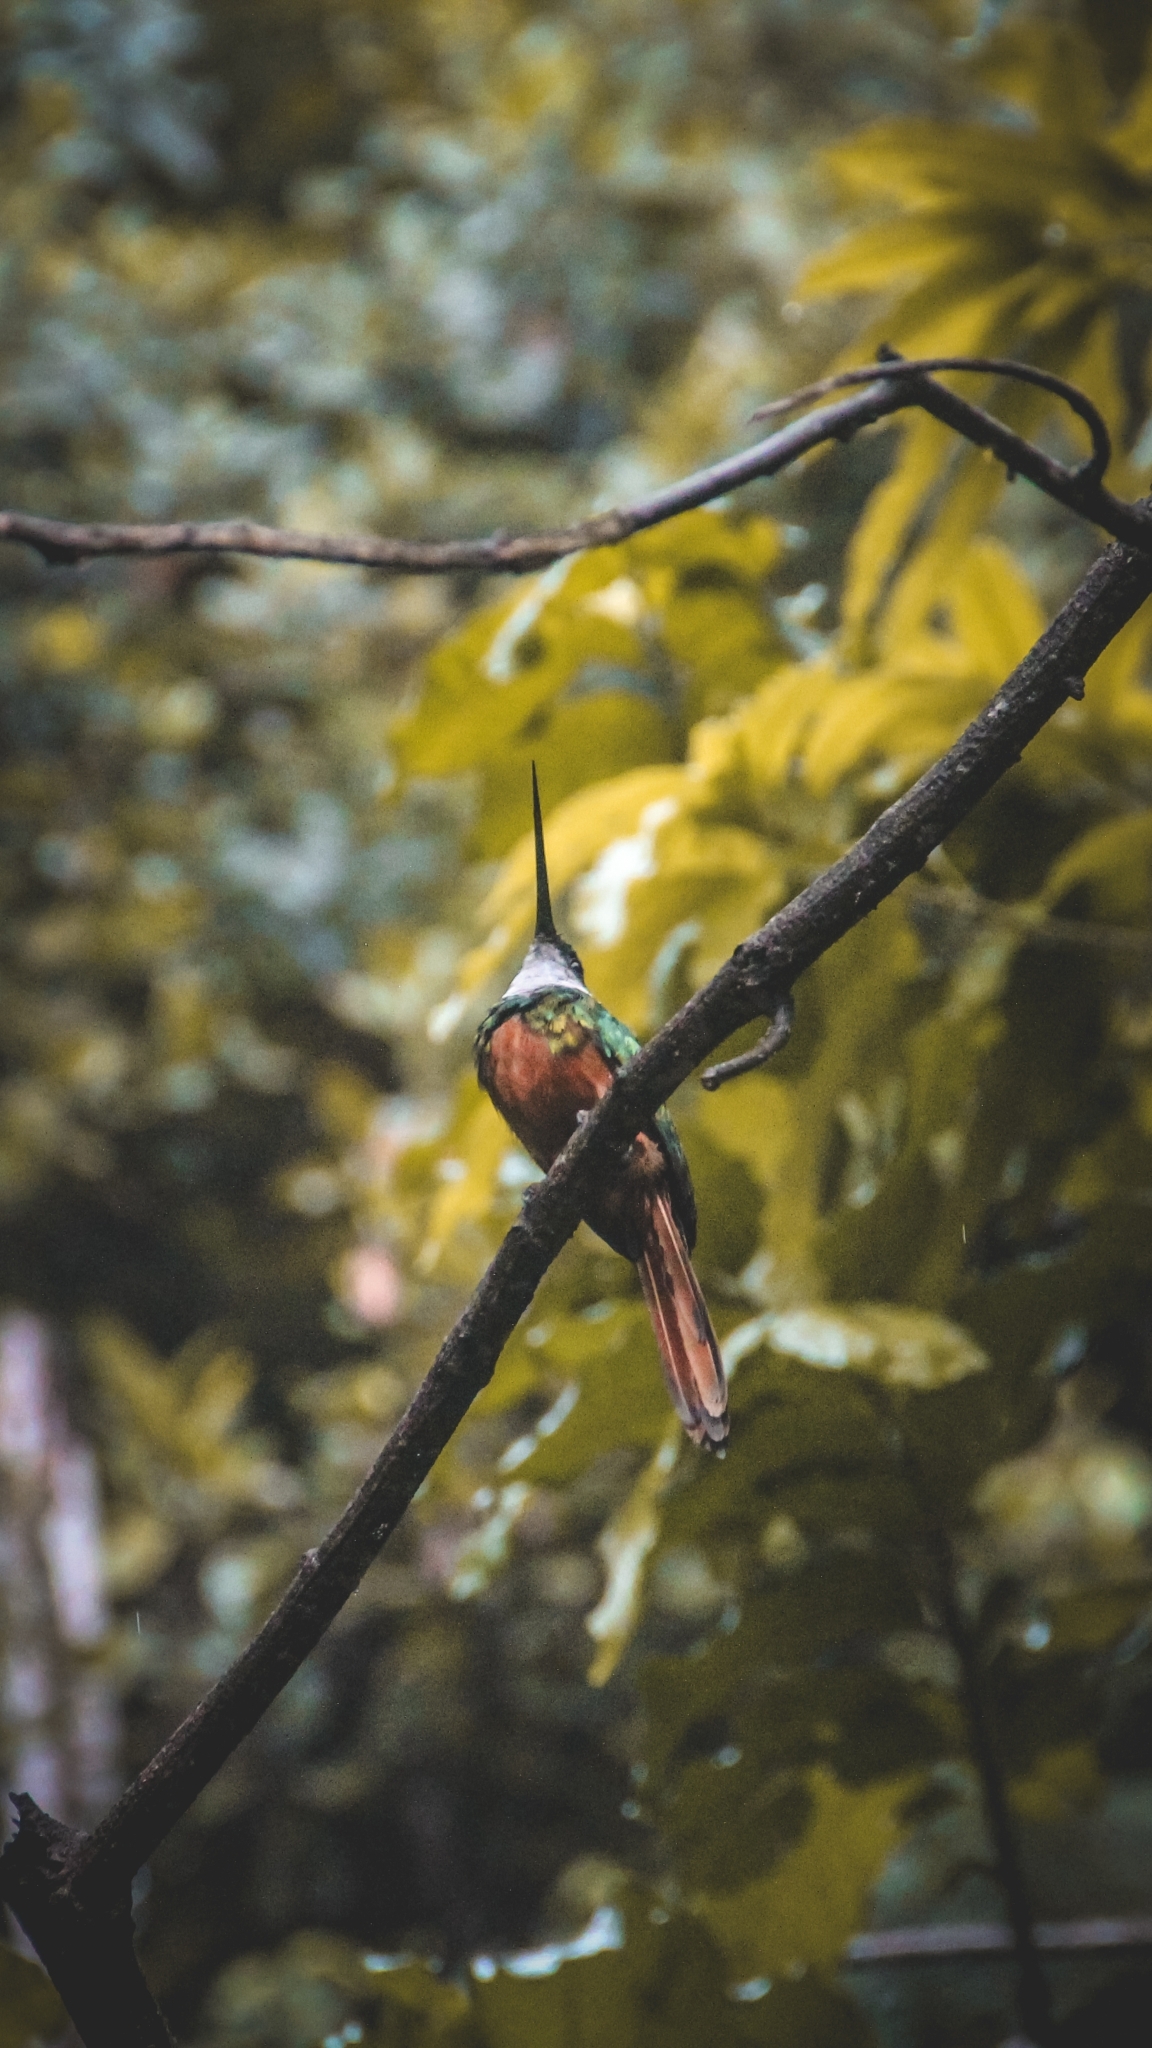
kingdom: Animalia
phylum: Chordata
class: Aves
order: Piciformes
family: Galbulidae
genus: Galbula
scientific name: Galbula ruficauda
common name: Rufous-tailed jacamar
